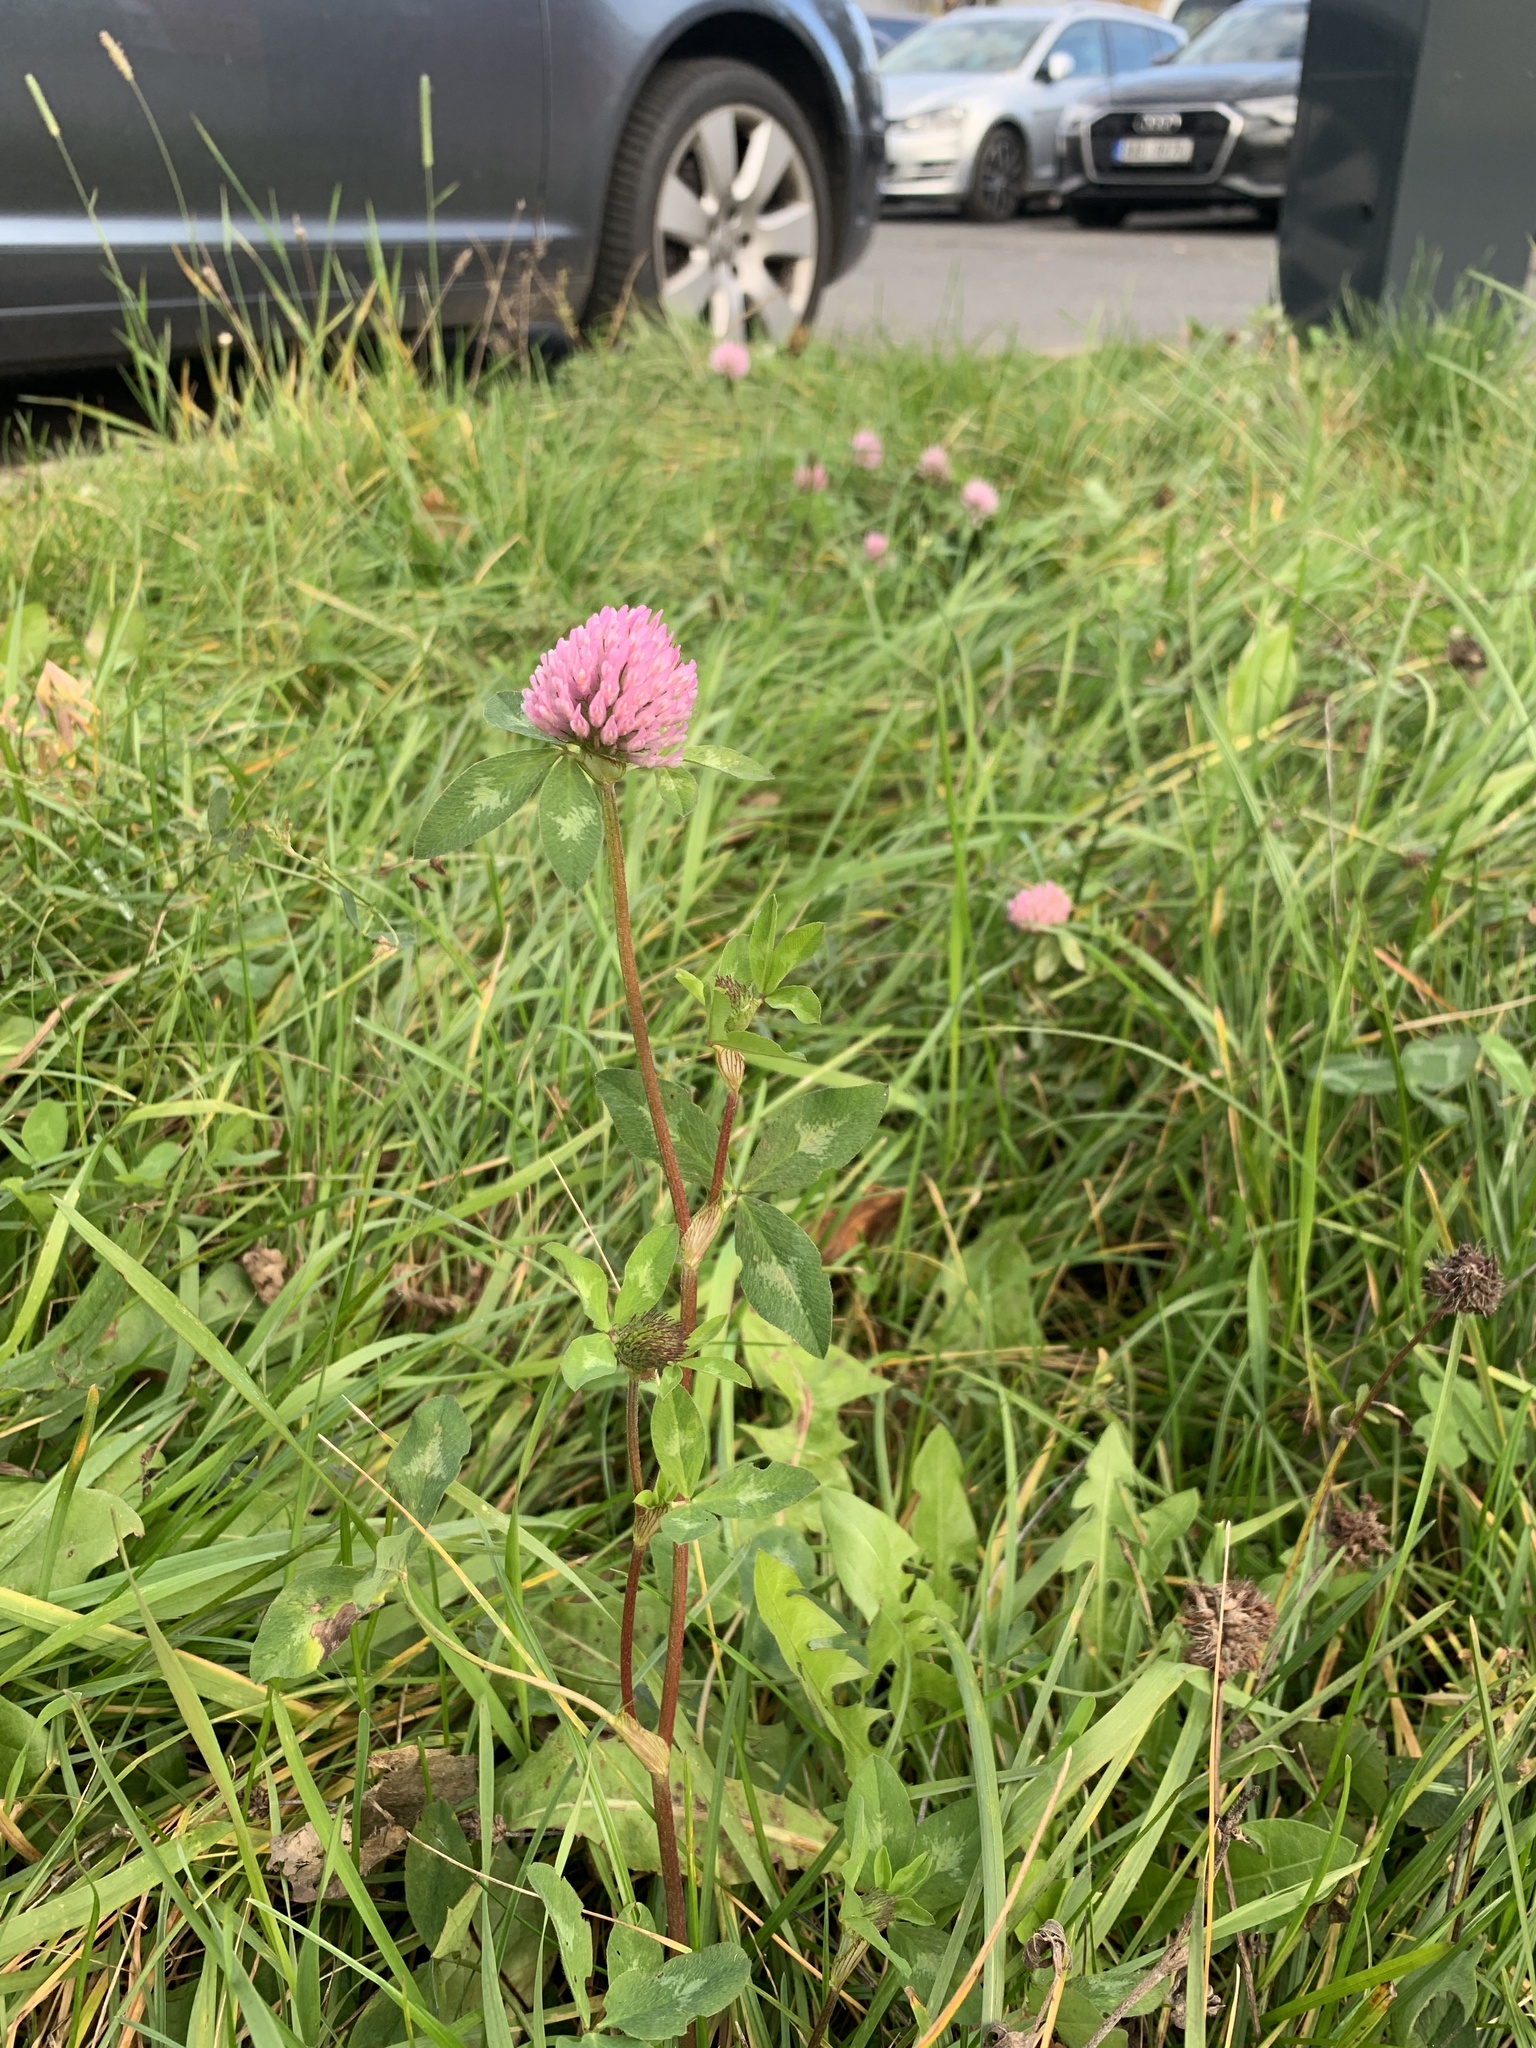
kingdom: Plantae
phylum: Tracheophyta
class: Magnoliopsida
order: Fabales
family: Fabaceae
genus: Trifolium
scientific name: Trifolium pratense
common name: Red clover
